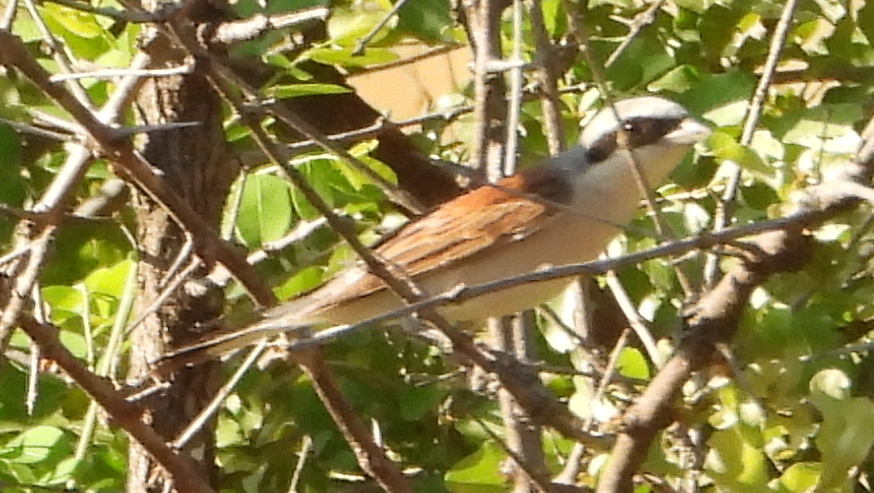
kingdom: Animalia
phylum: Chordata
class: Aves
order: Passeriformes
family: Laniidae
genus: Lanius
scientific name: Lanius collurio
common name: Red-backed shrike
